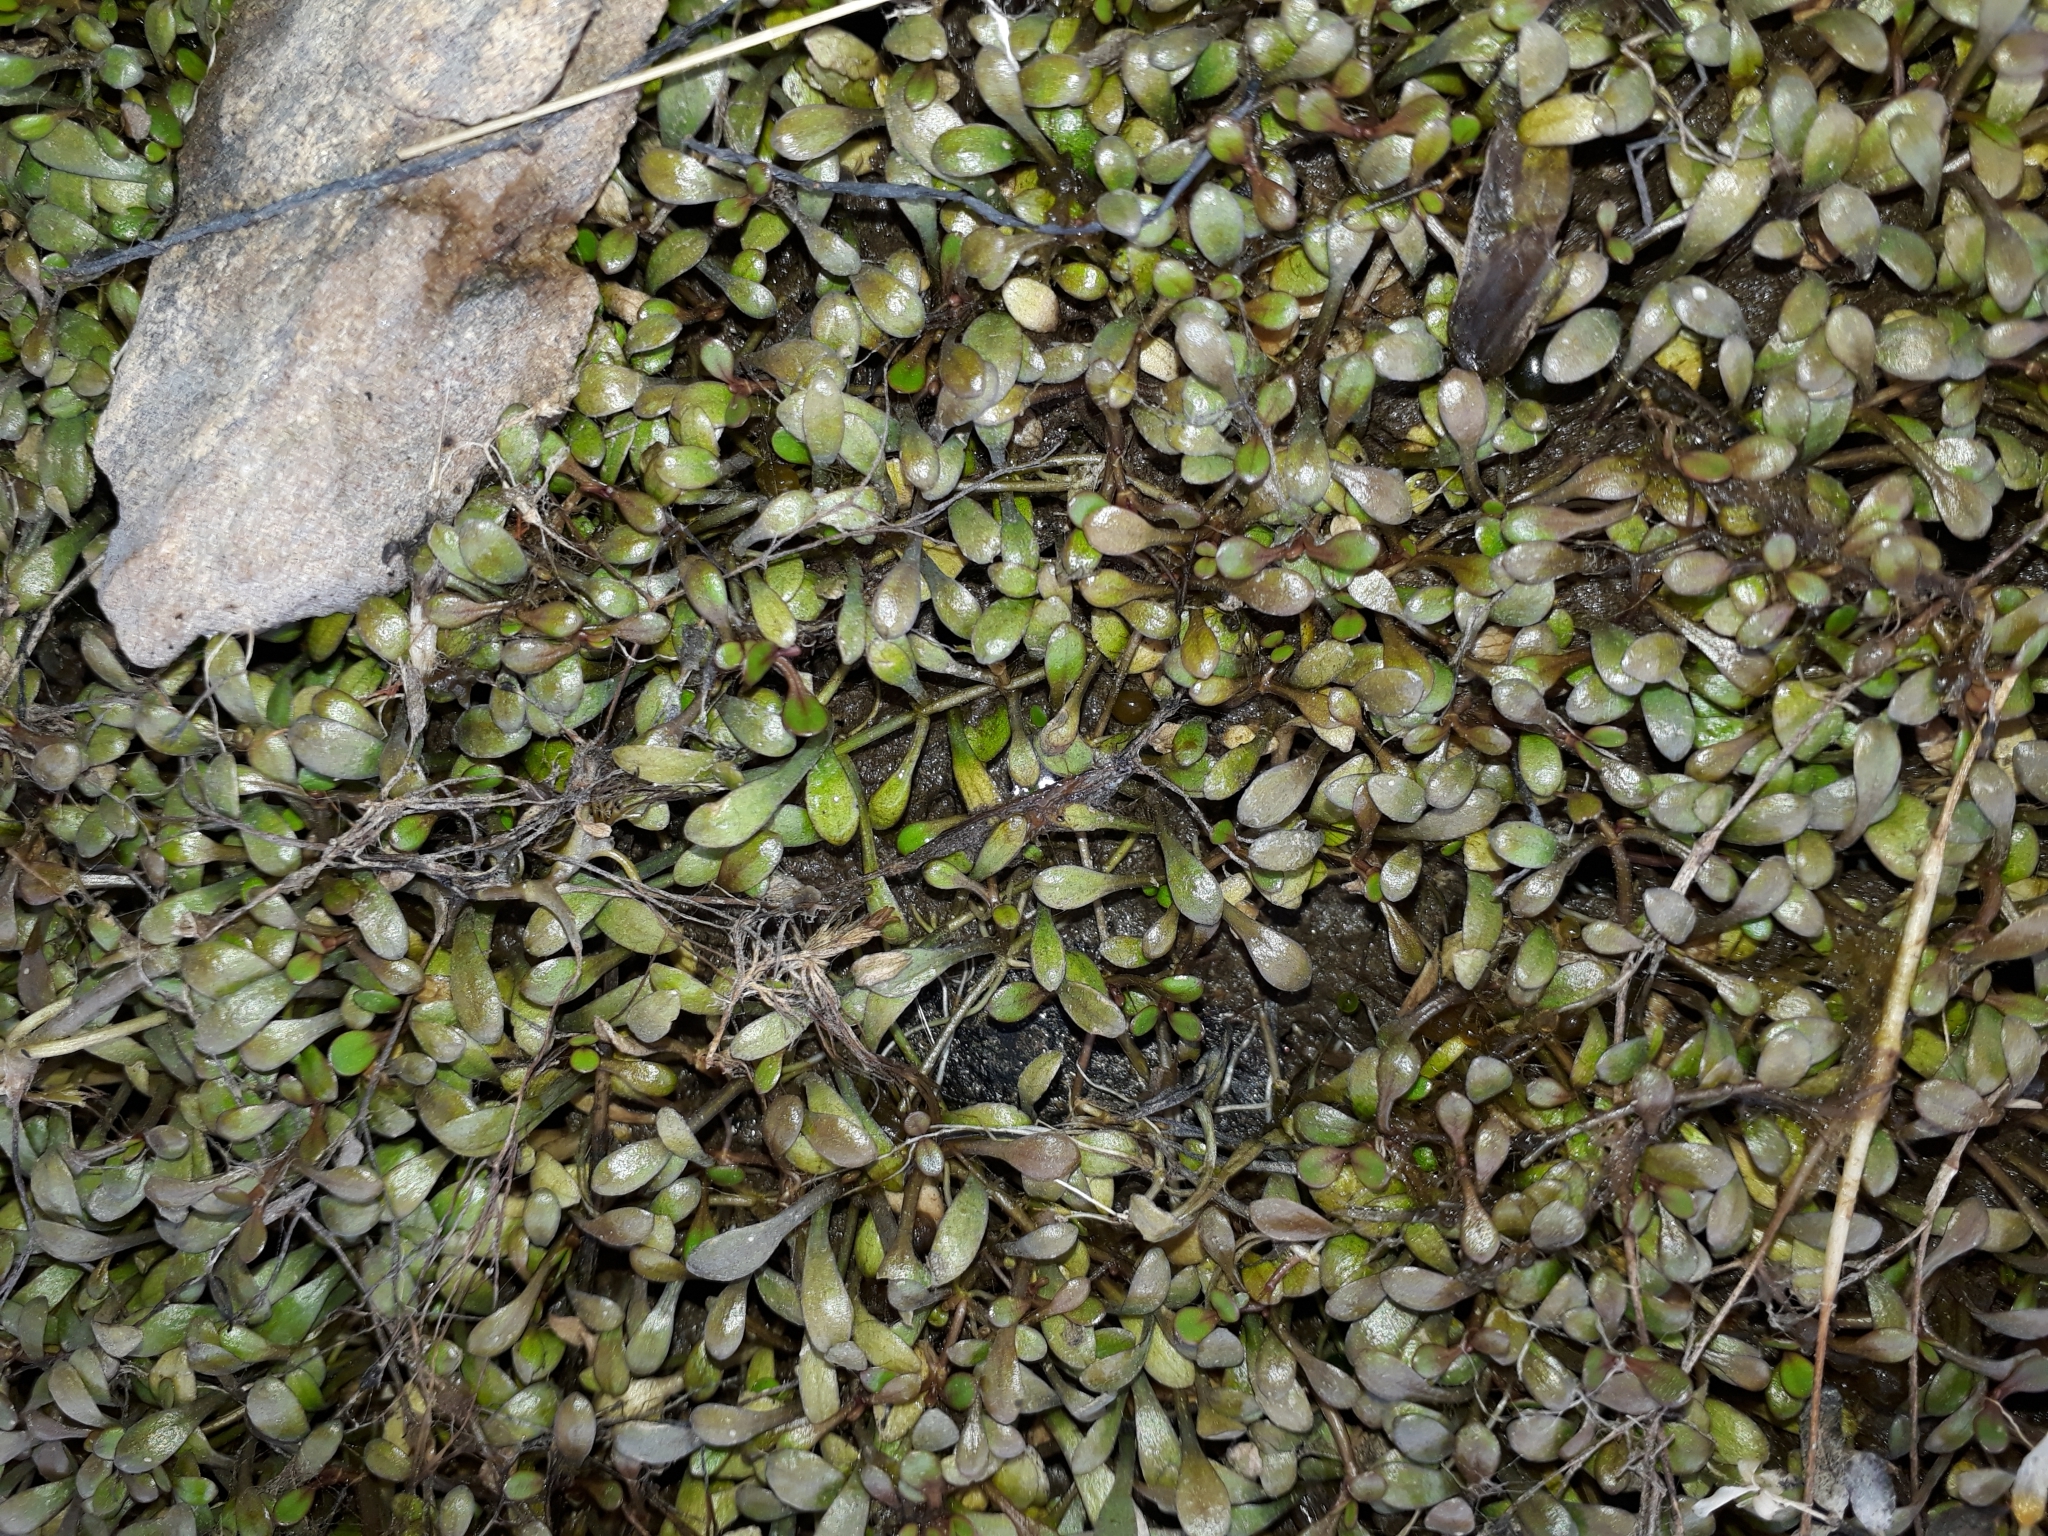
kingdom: Plantae
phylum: Tracheophyta
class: Magnoliopsida
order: Lamiales
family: Phrymaceae
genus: Glossostigma
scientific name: Glossostigma elatinoides
